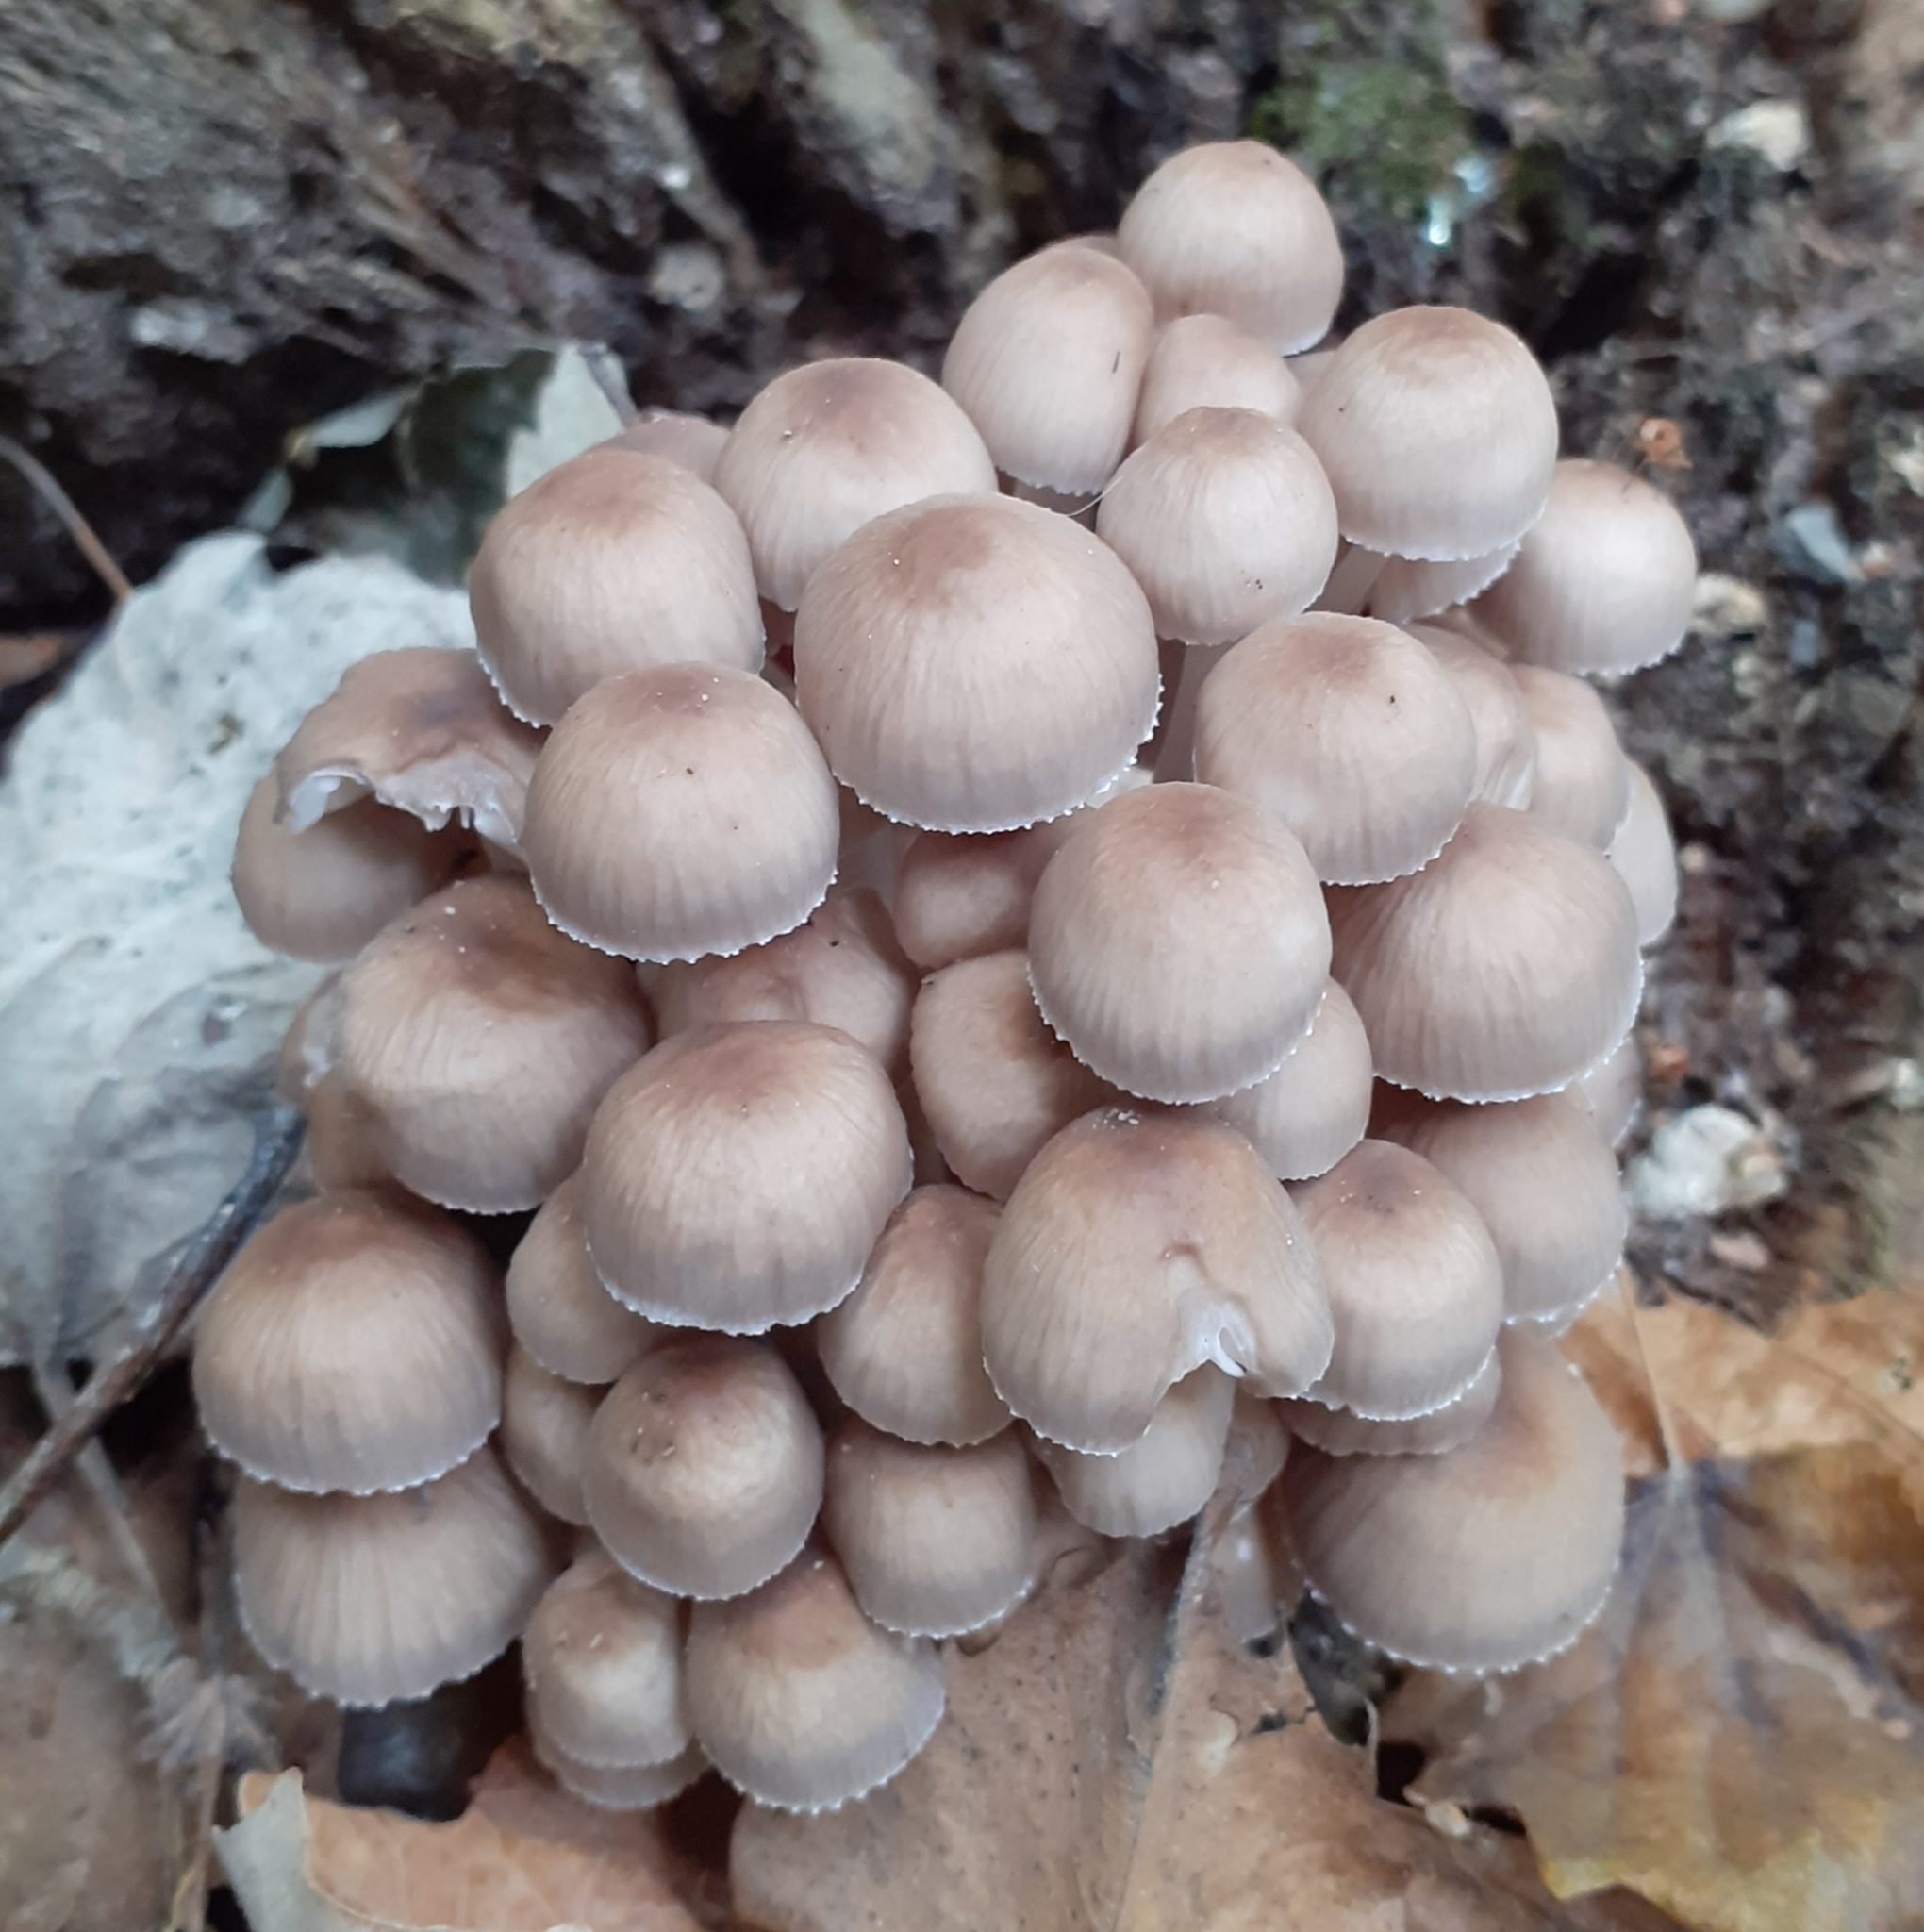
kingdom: Fungi
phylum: Basidiomycota
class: Agaricomycetes
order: Agaricales
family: Mycenaceae
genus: Mycena
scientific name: Mycena inclinata
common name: Clustered bonnet
